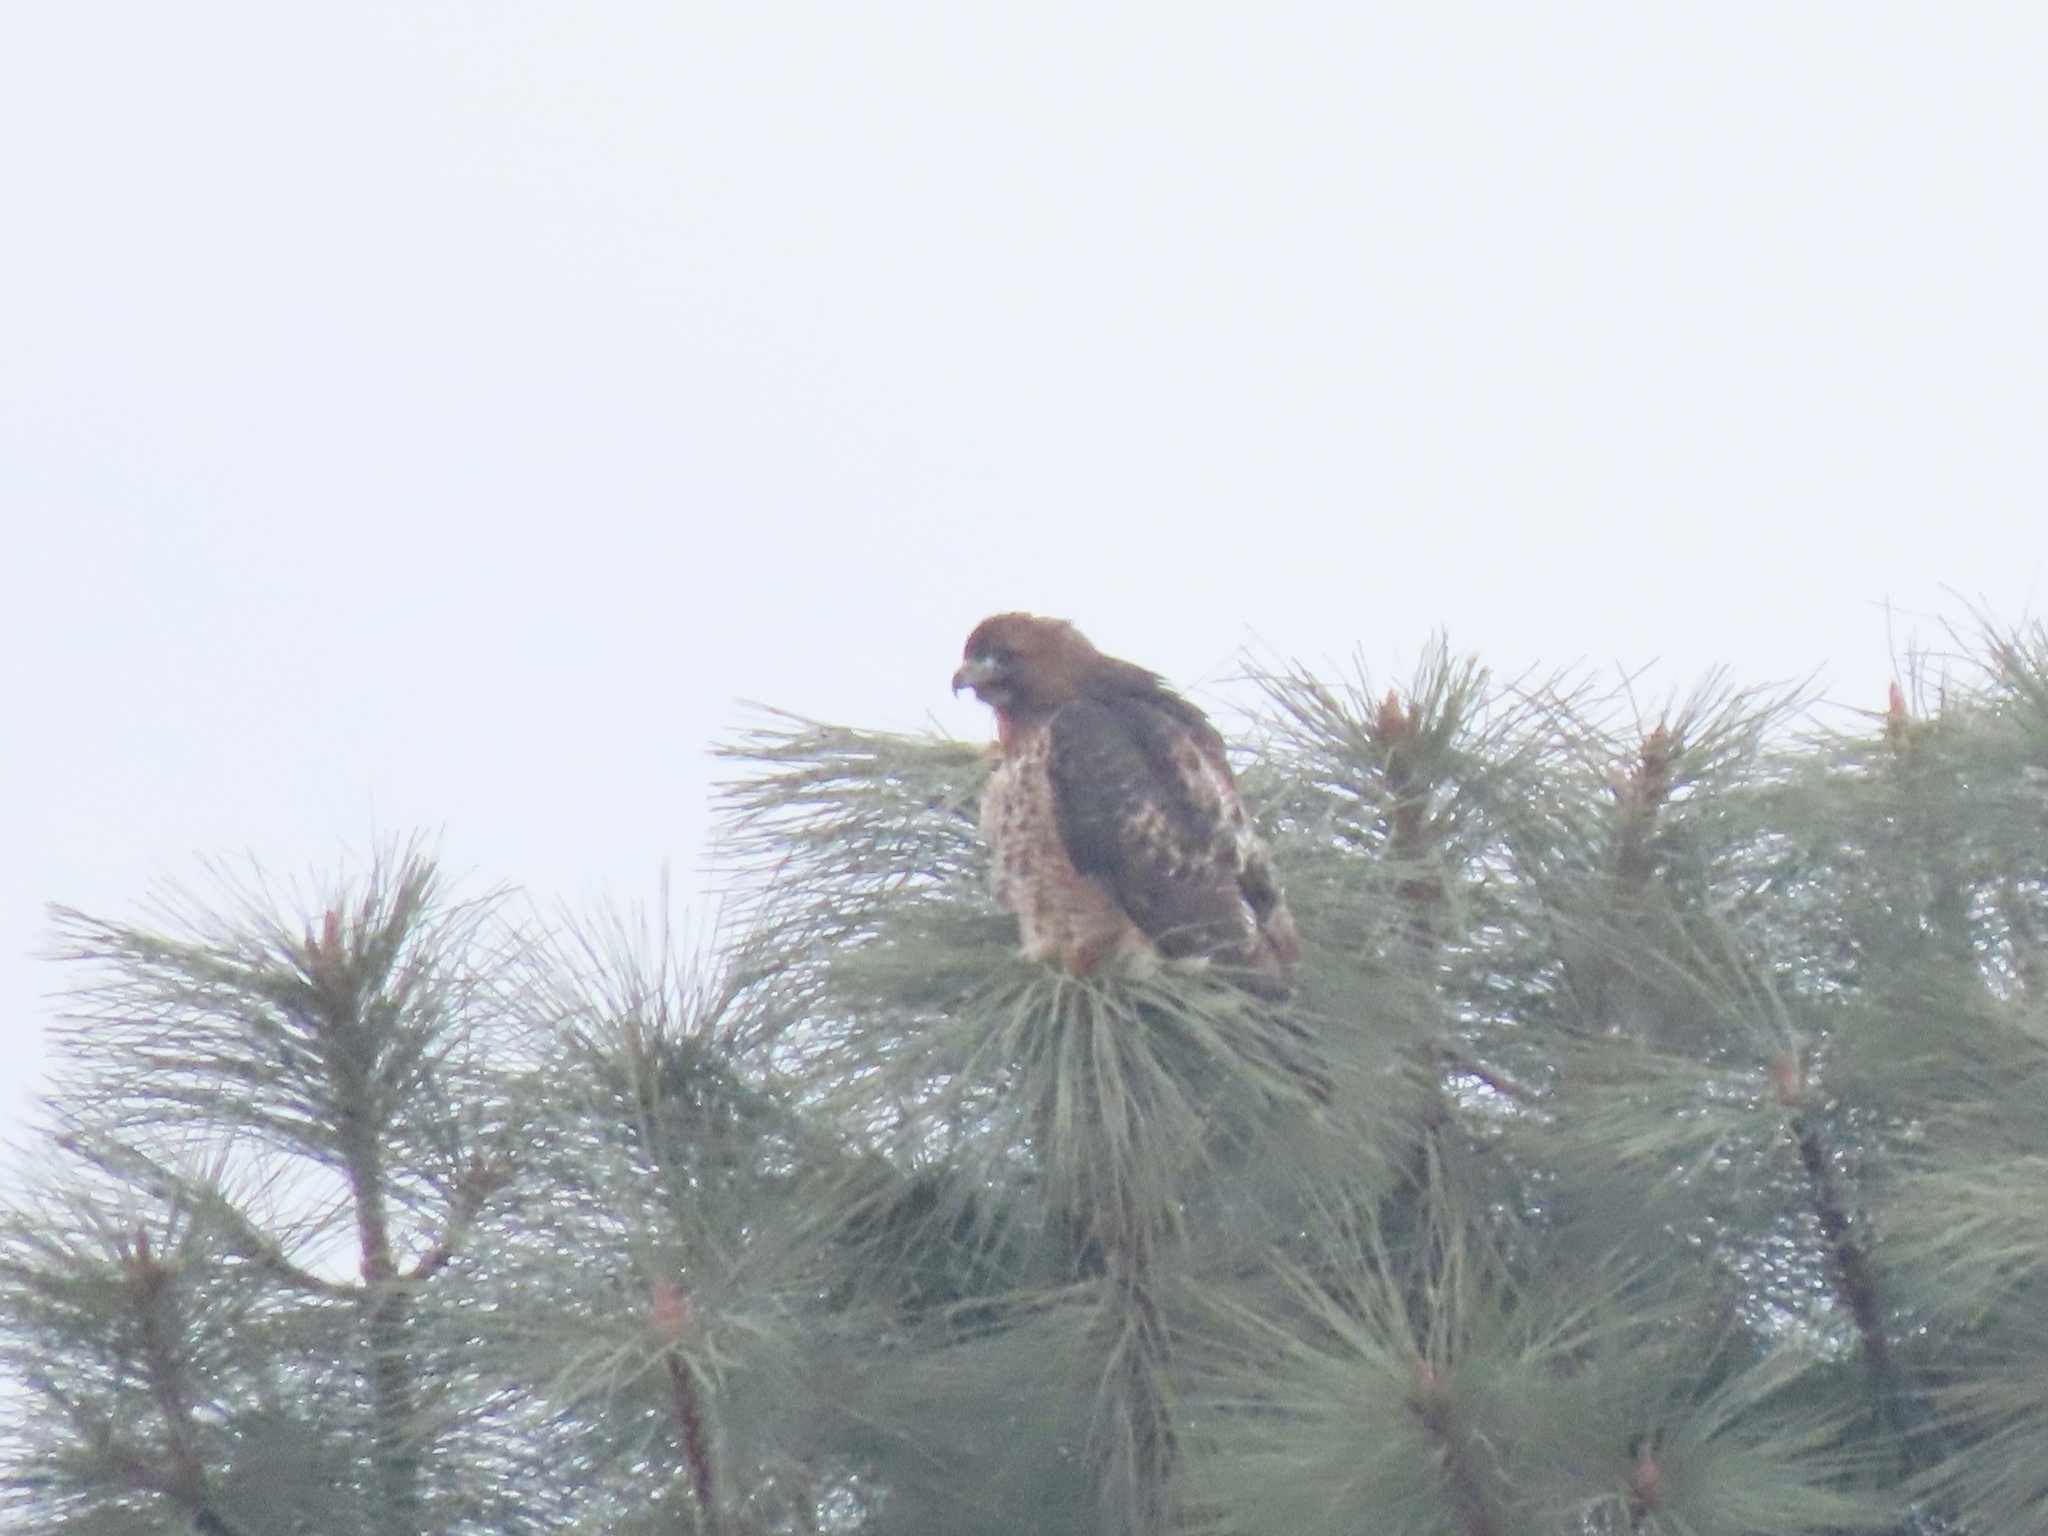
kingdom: Animalia
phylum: Chordata
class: Aves
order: Accipitriformes
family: Accipitridae
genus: Buteo
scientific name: Buteo jamaicensis
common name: Red-tailed hawk
